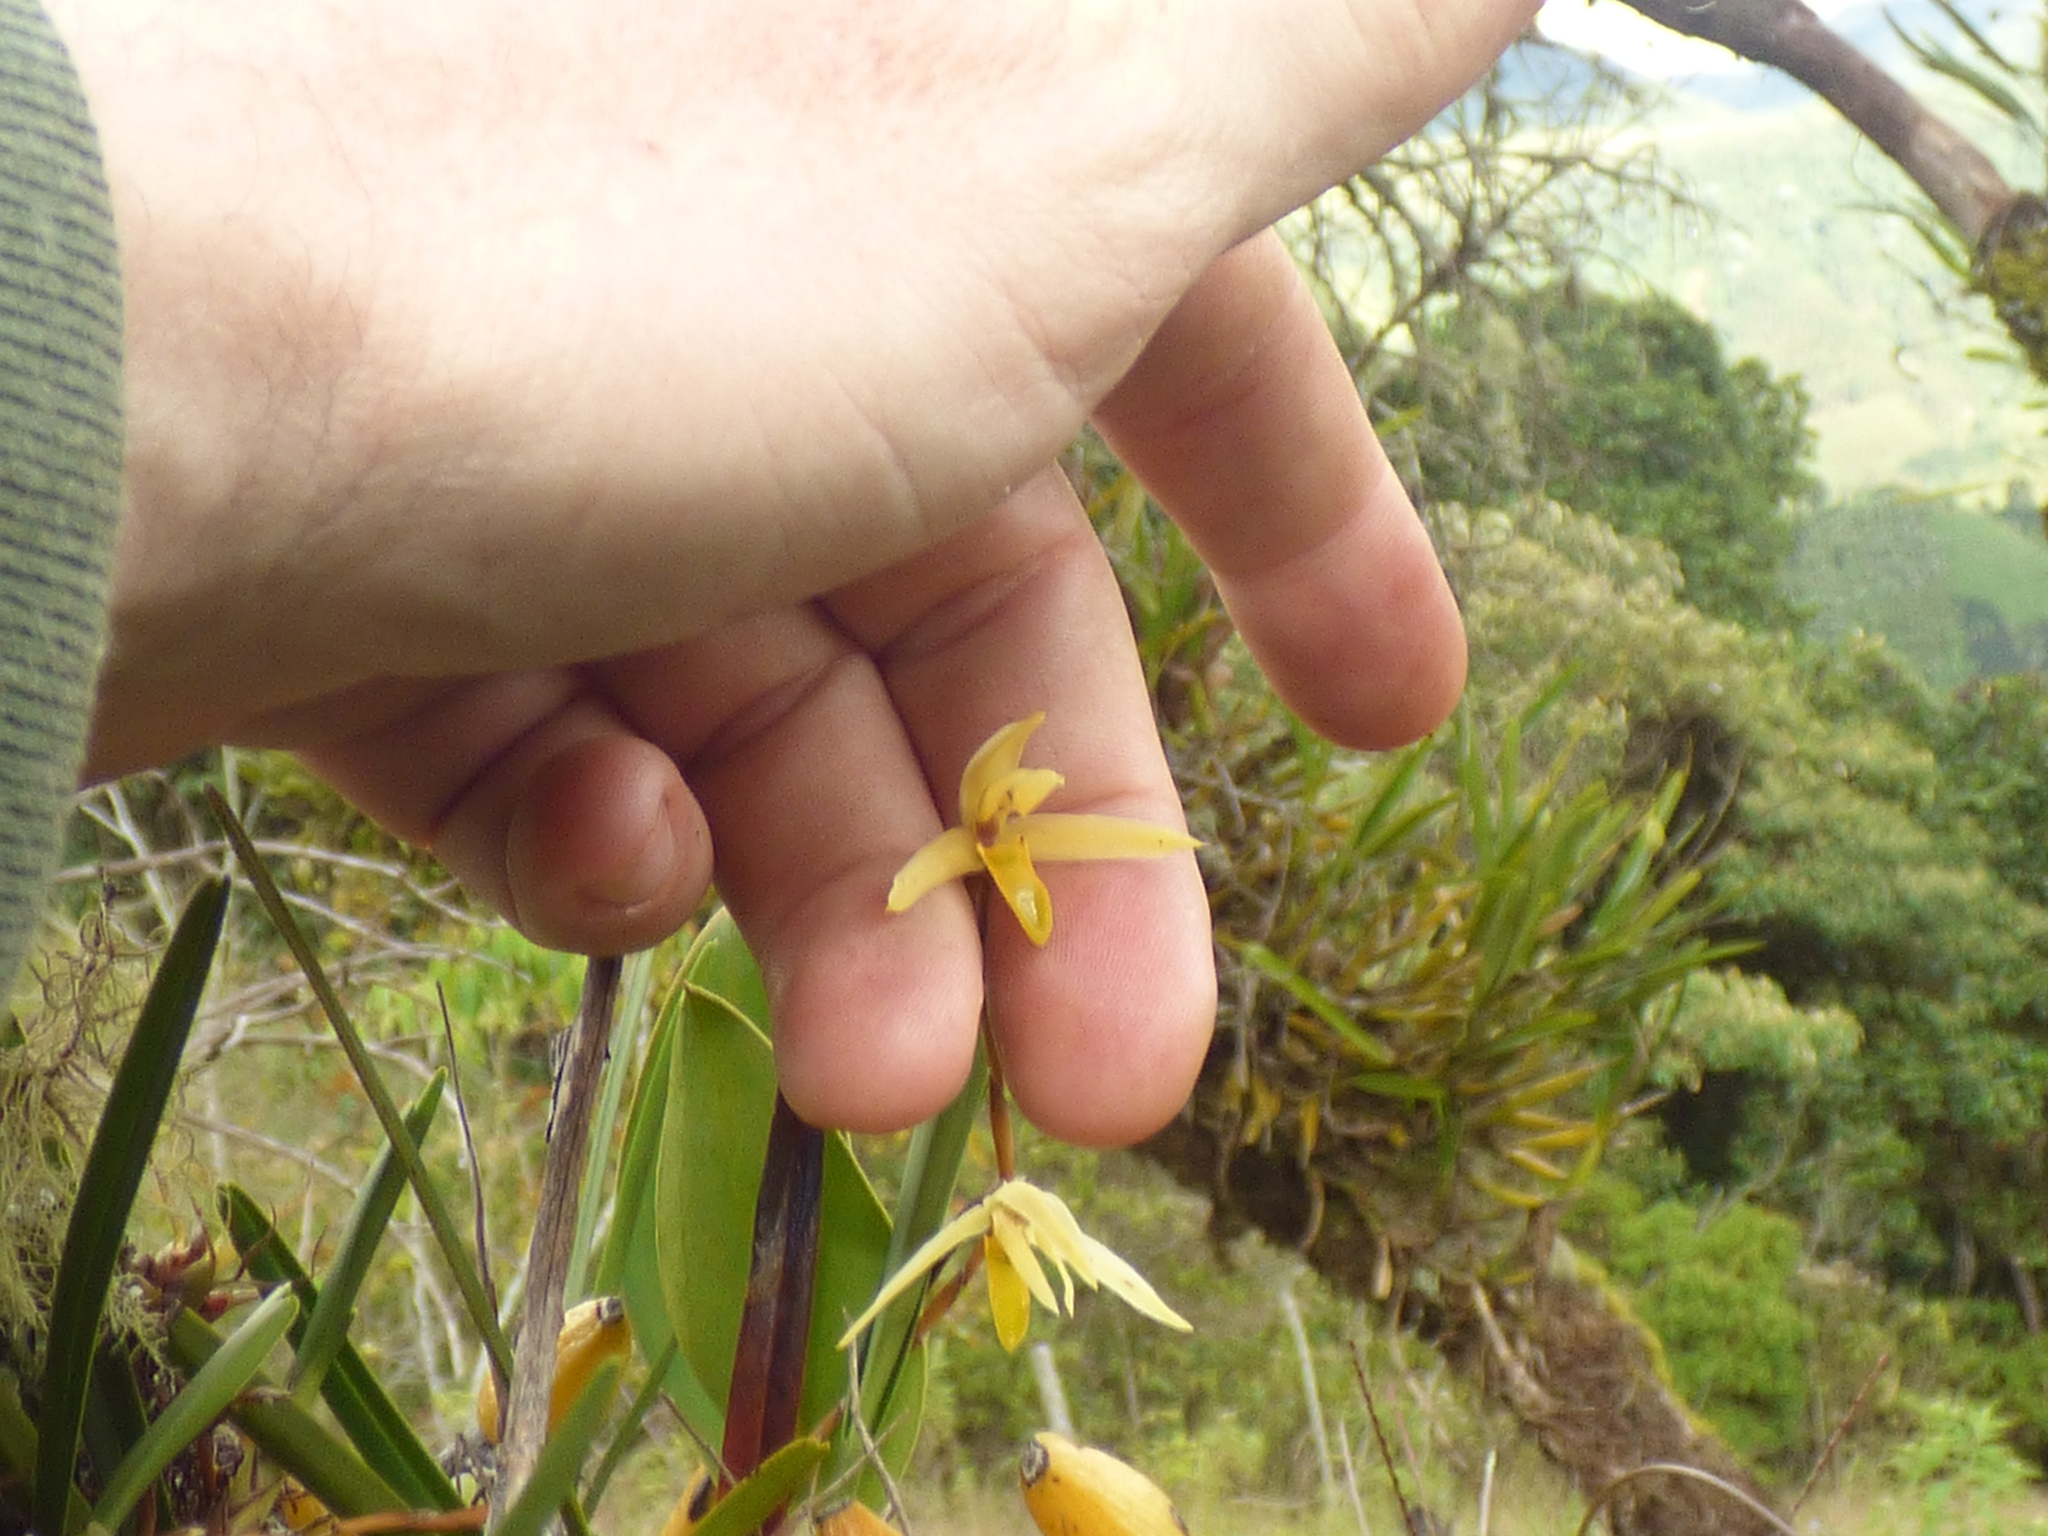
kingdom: Plantae
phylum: Tracheophyta
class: Liliopsida
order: Asparagales
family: Orchidaceae
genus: Maxillaria
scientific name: Maxillaria acuminata
